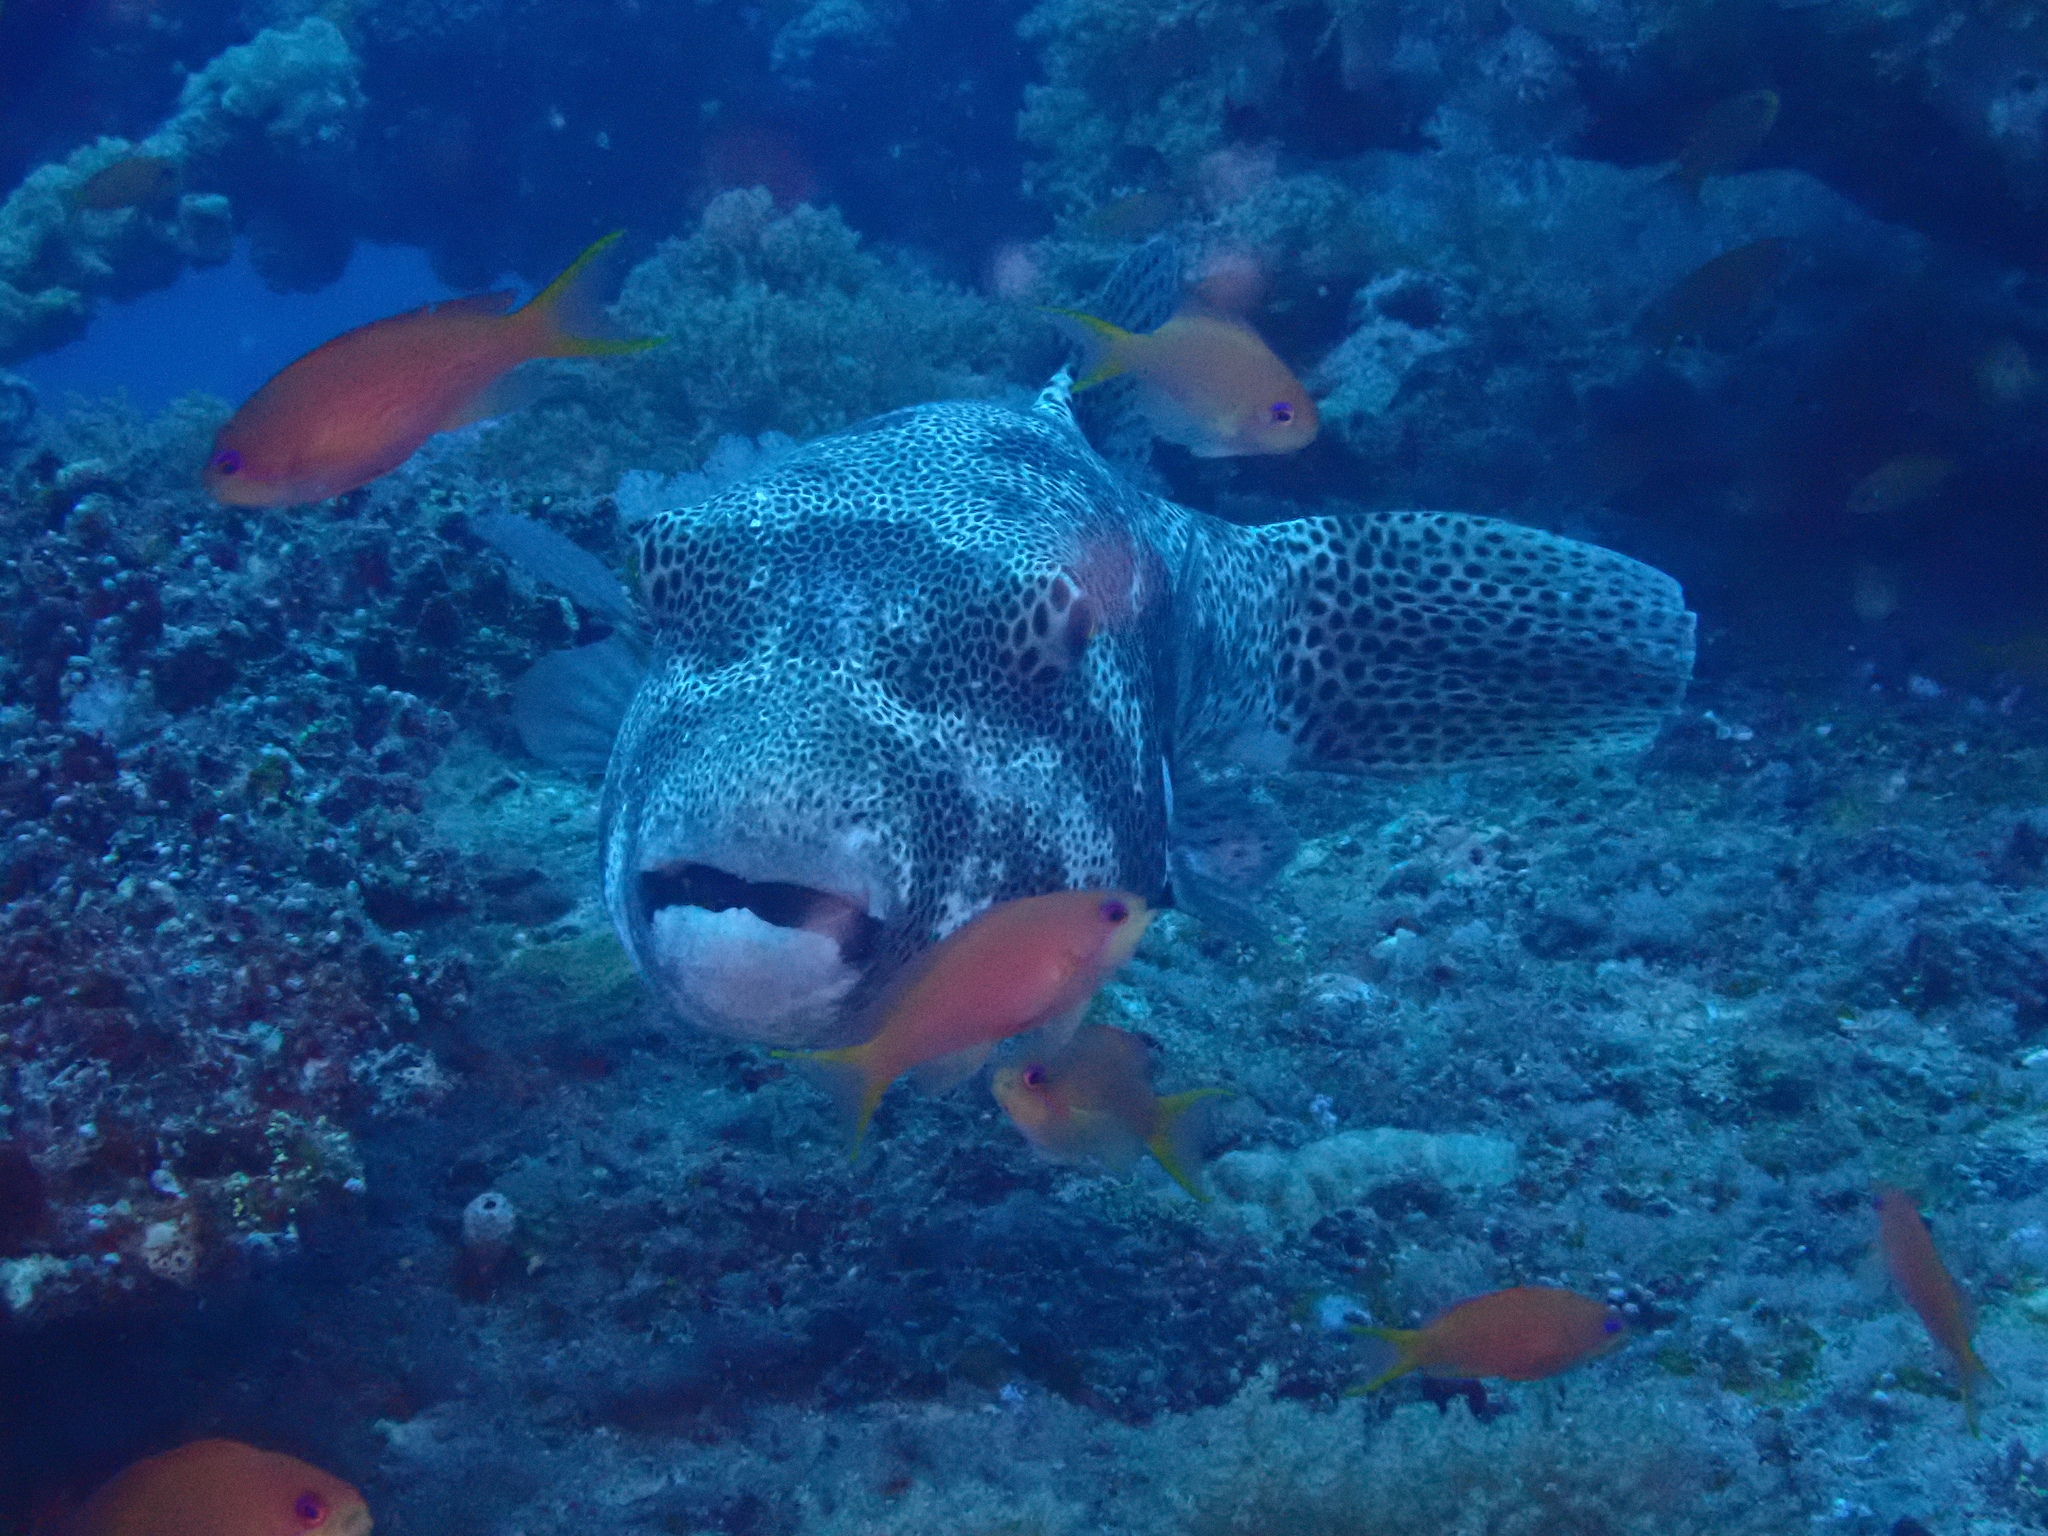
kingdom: Animalia
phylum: Chordata
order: Tetraodontiformes
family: Tetraodontidae
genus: Arothron
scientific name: Arothron stellatus
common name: Star blaasop
